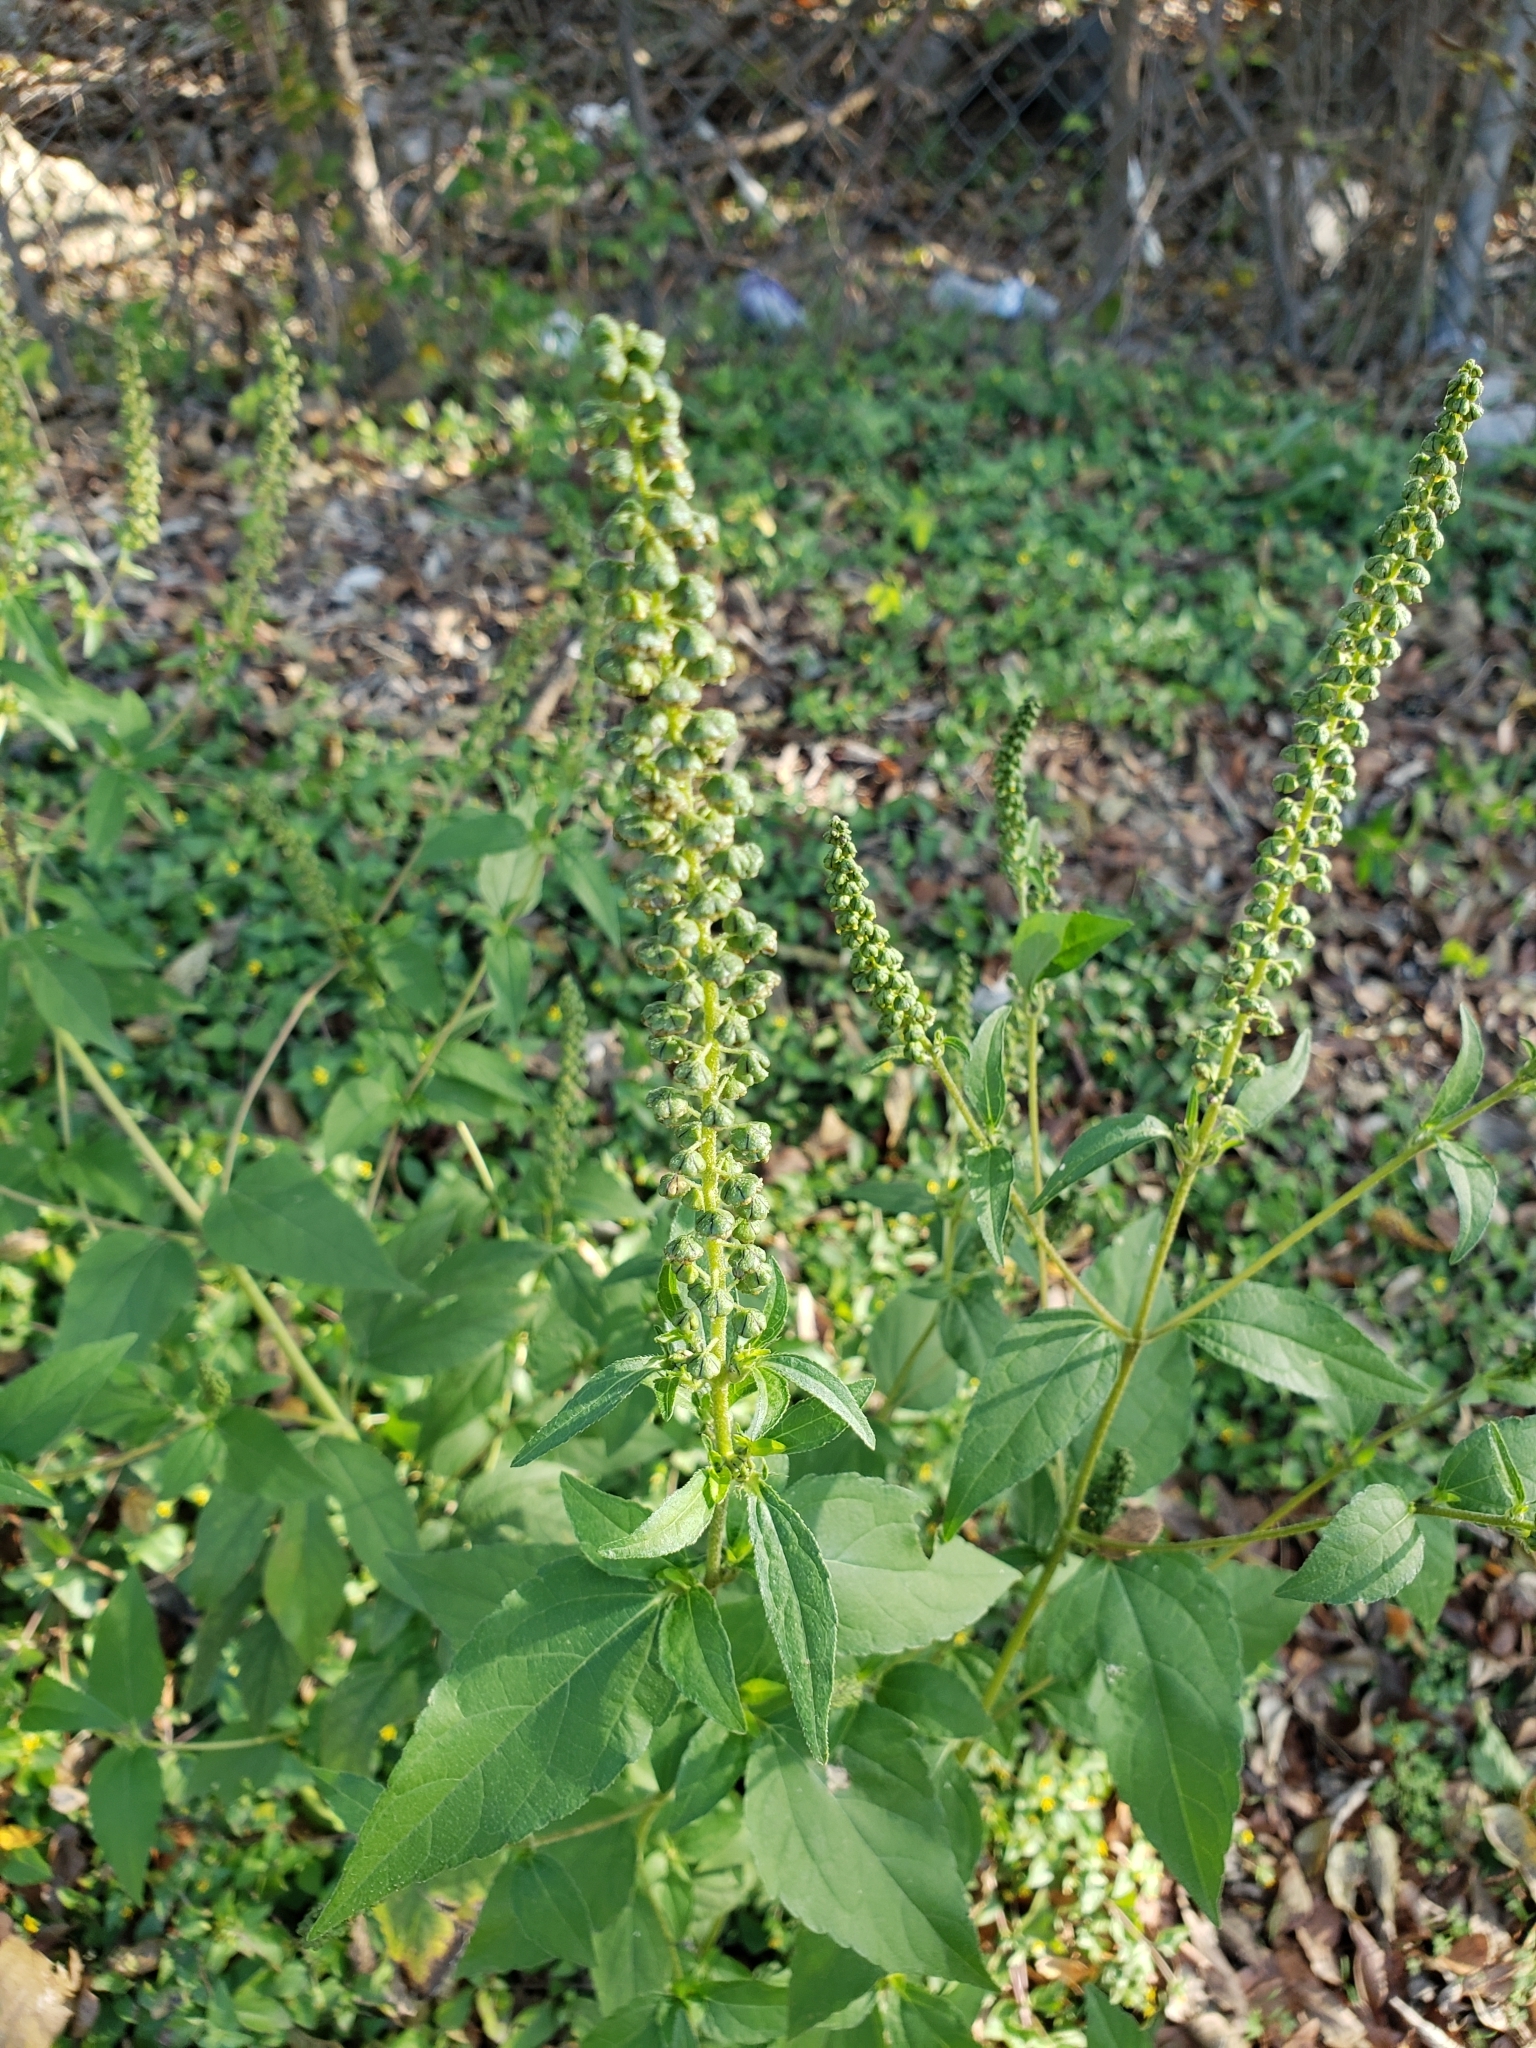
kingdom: Plantae
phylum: Tracheophyta
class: Magnoliopsida
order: Asterales
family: Asteraceae
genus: Ambrosia
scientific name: Ambrosia trifida
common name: Giant ragweed
